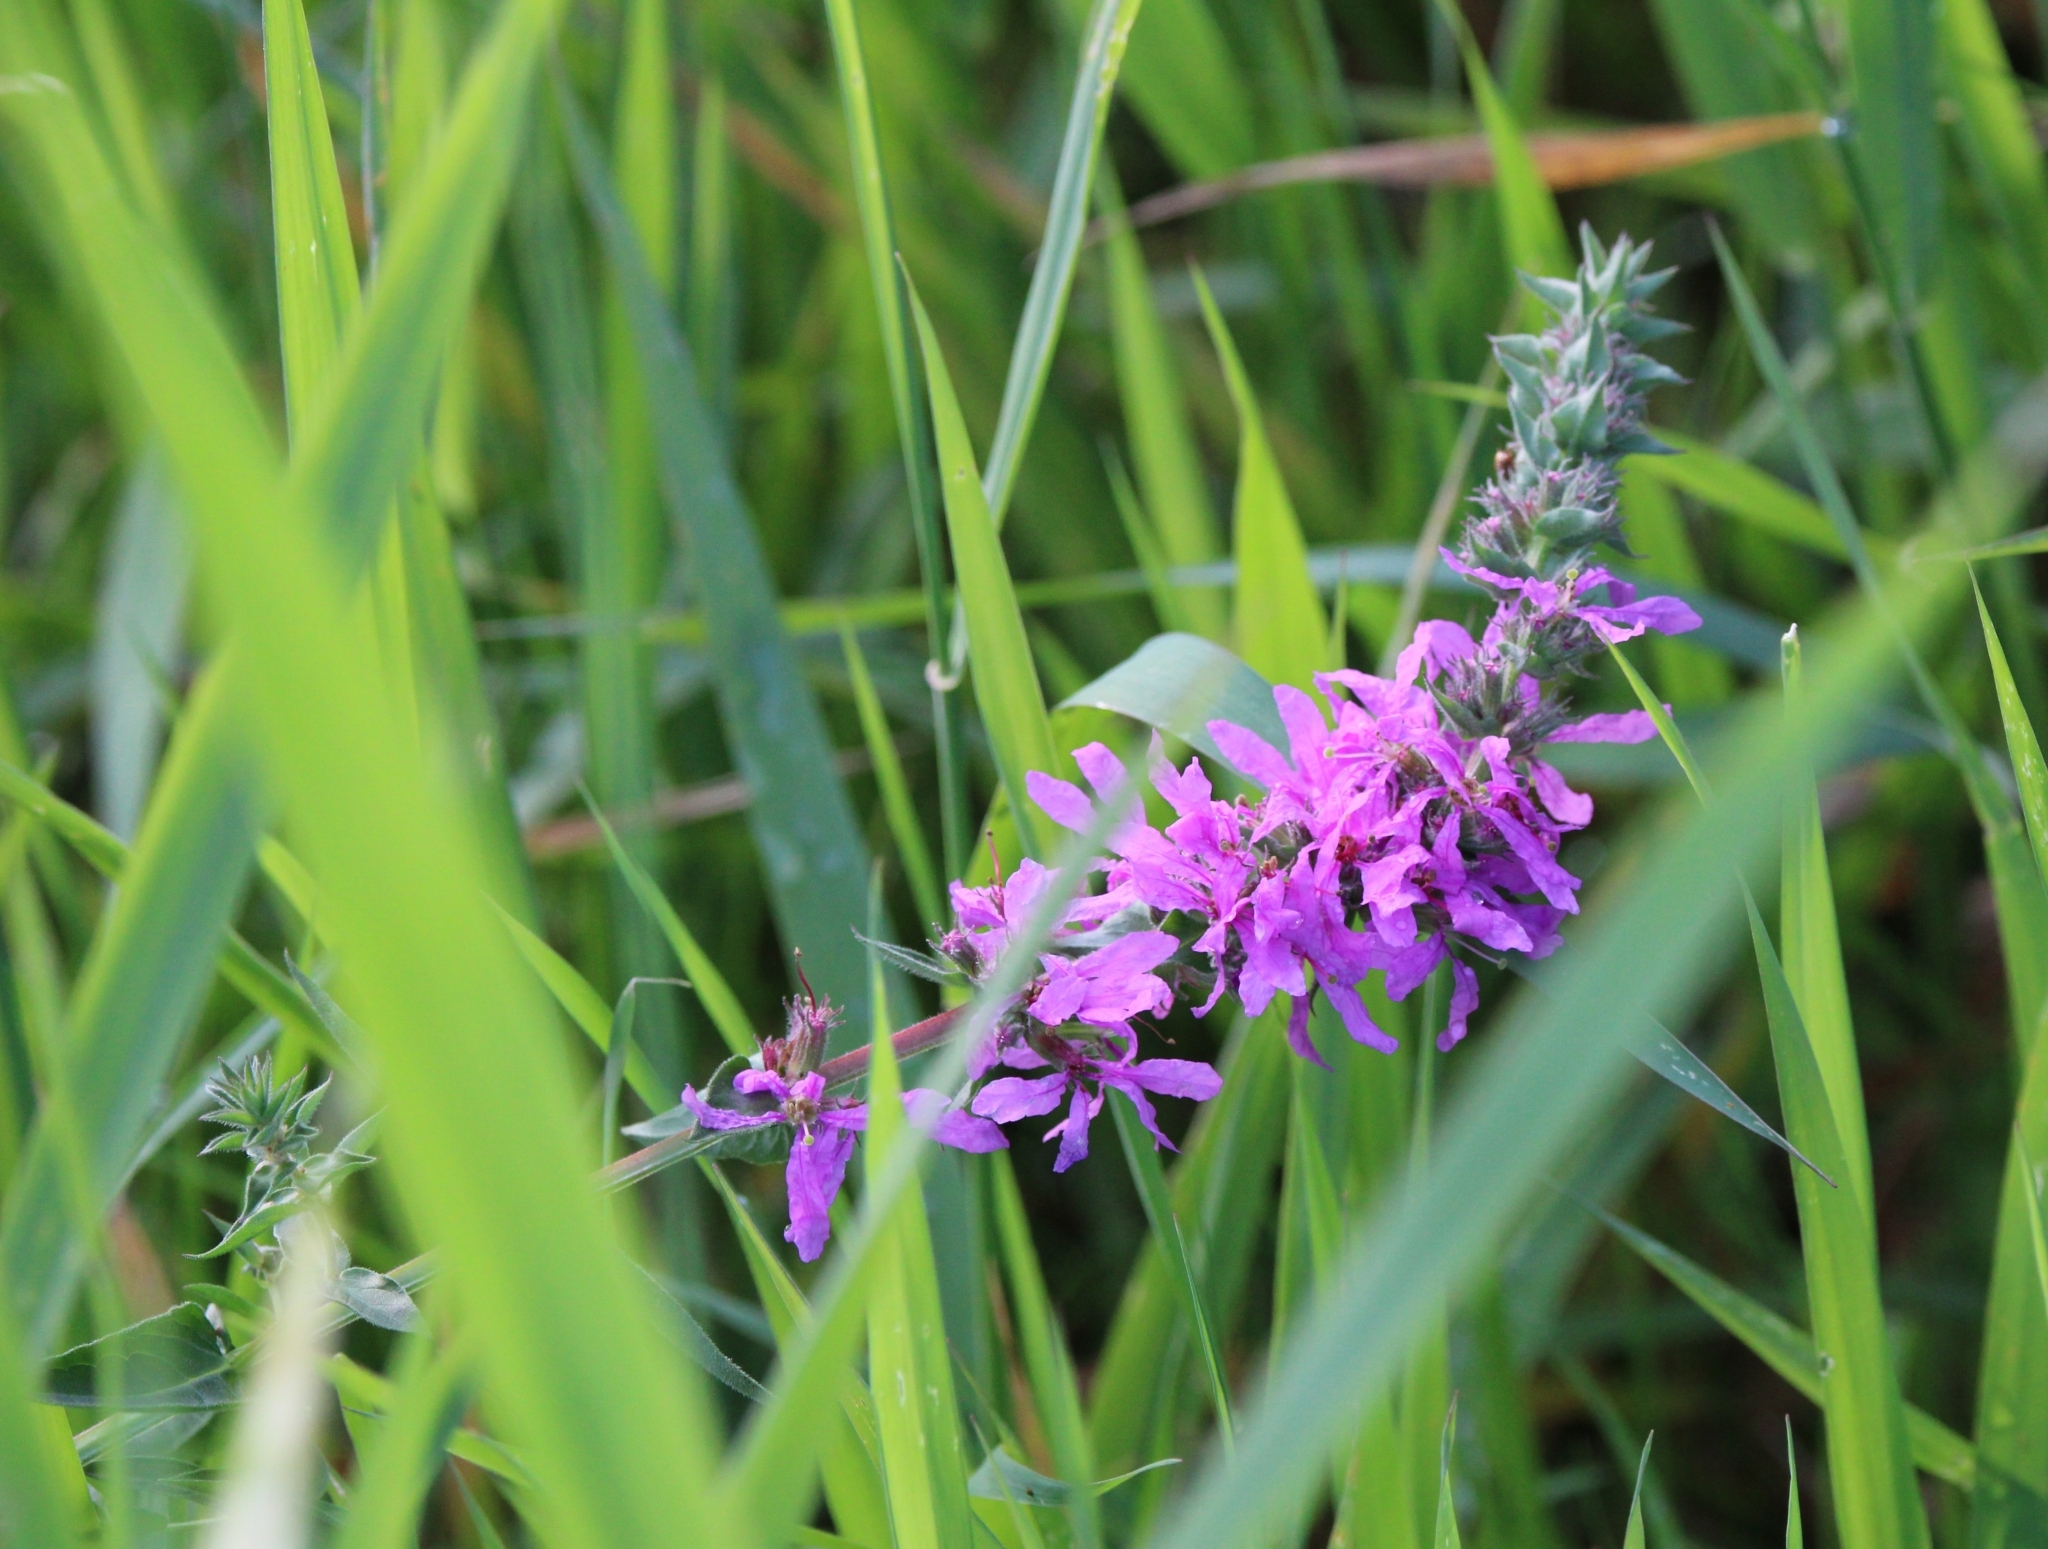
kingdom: Plantae
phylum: Tracheophyta
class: Magnoliopsida
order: Myrtales
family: Lythraceae
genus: Lythrum
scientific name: Lythrum salicaria
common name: Purple loosestrife
